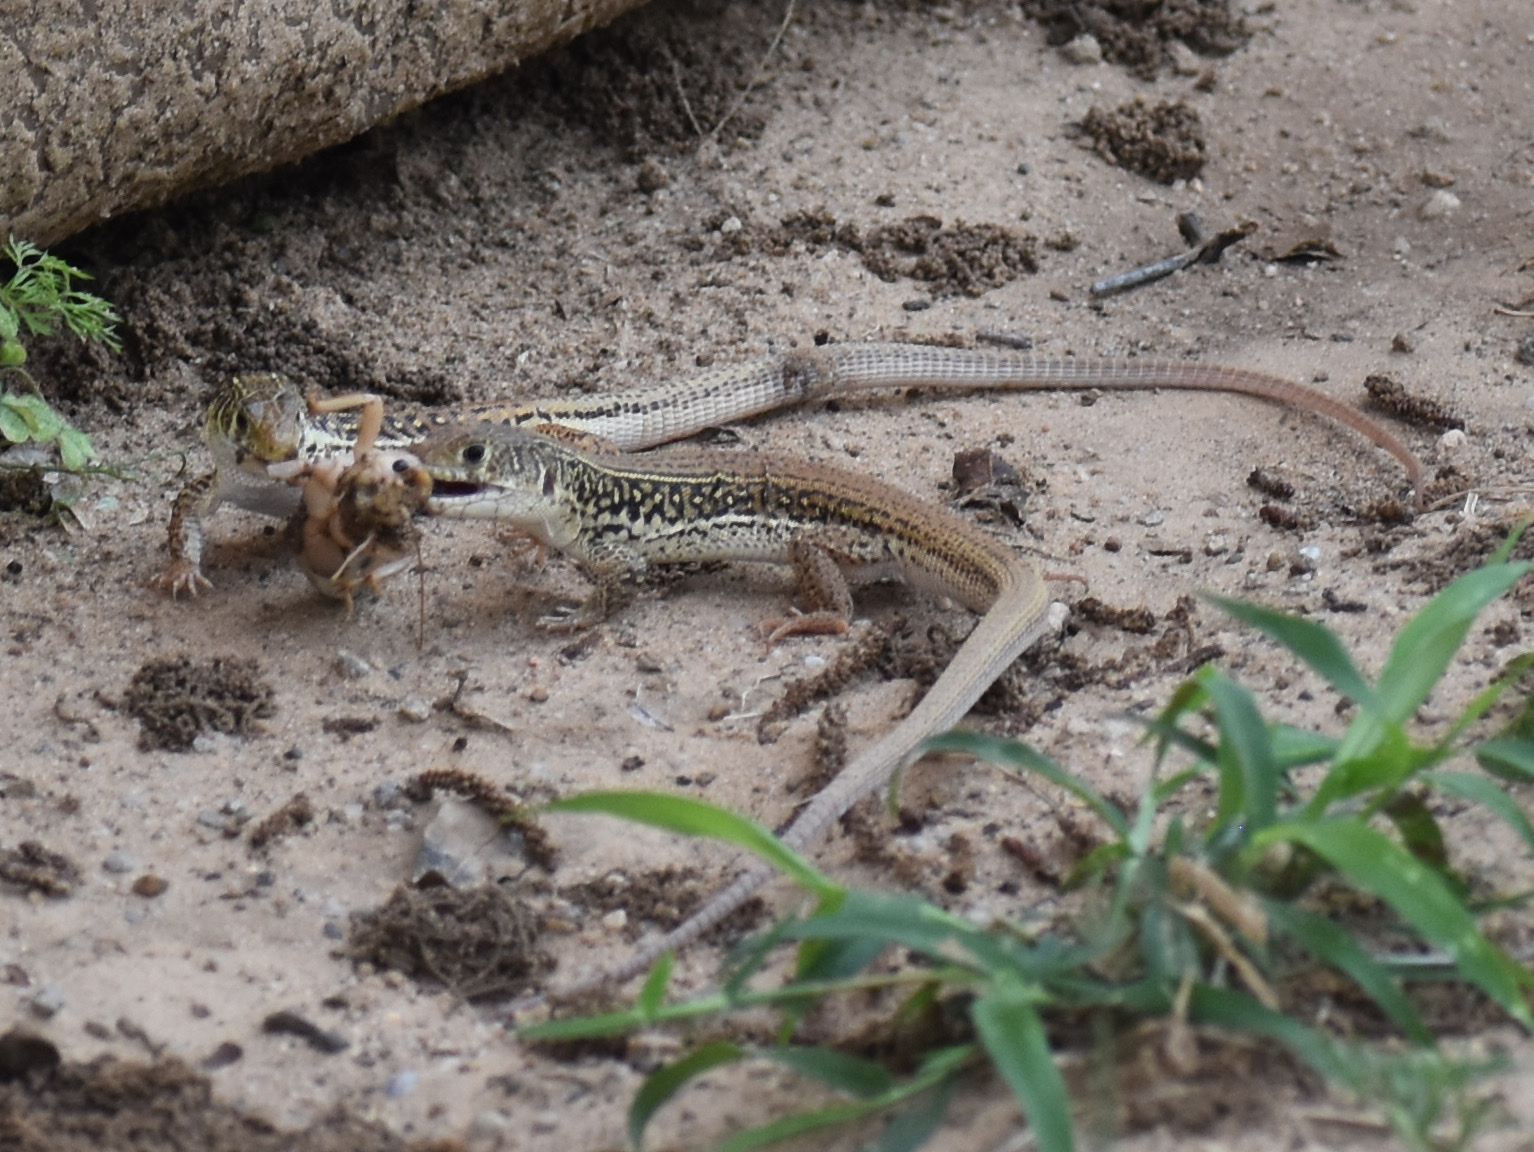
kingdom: Animalia
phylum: Chordata
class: Squamata
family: Lacertidae
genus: Nucras
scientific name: Nucras ornata
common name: Ornate sandveld lizard
